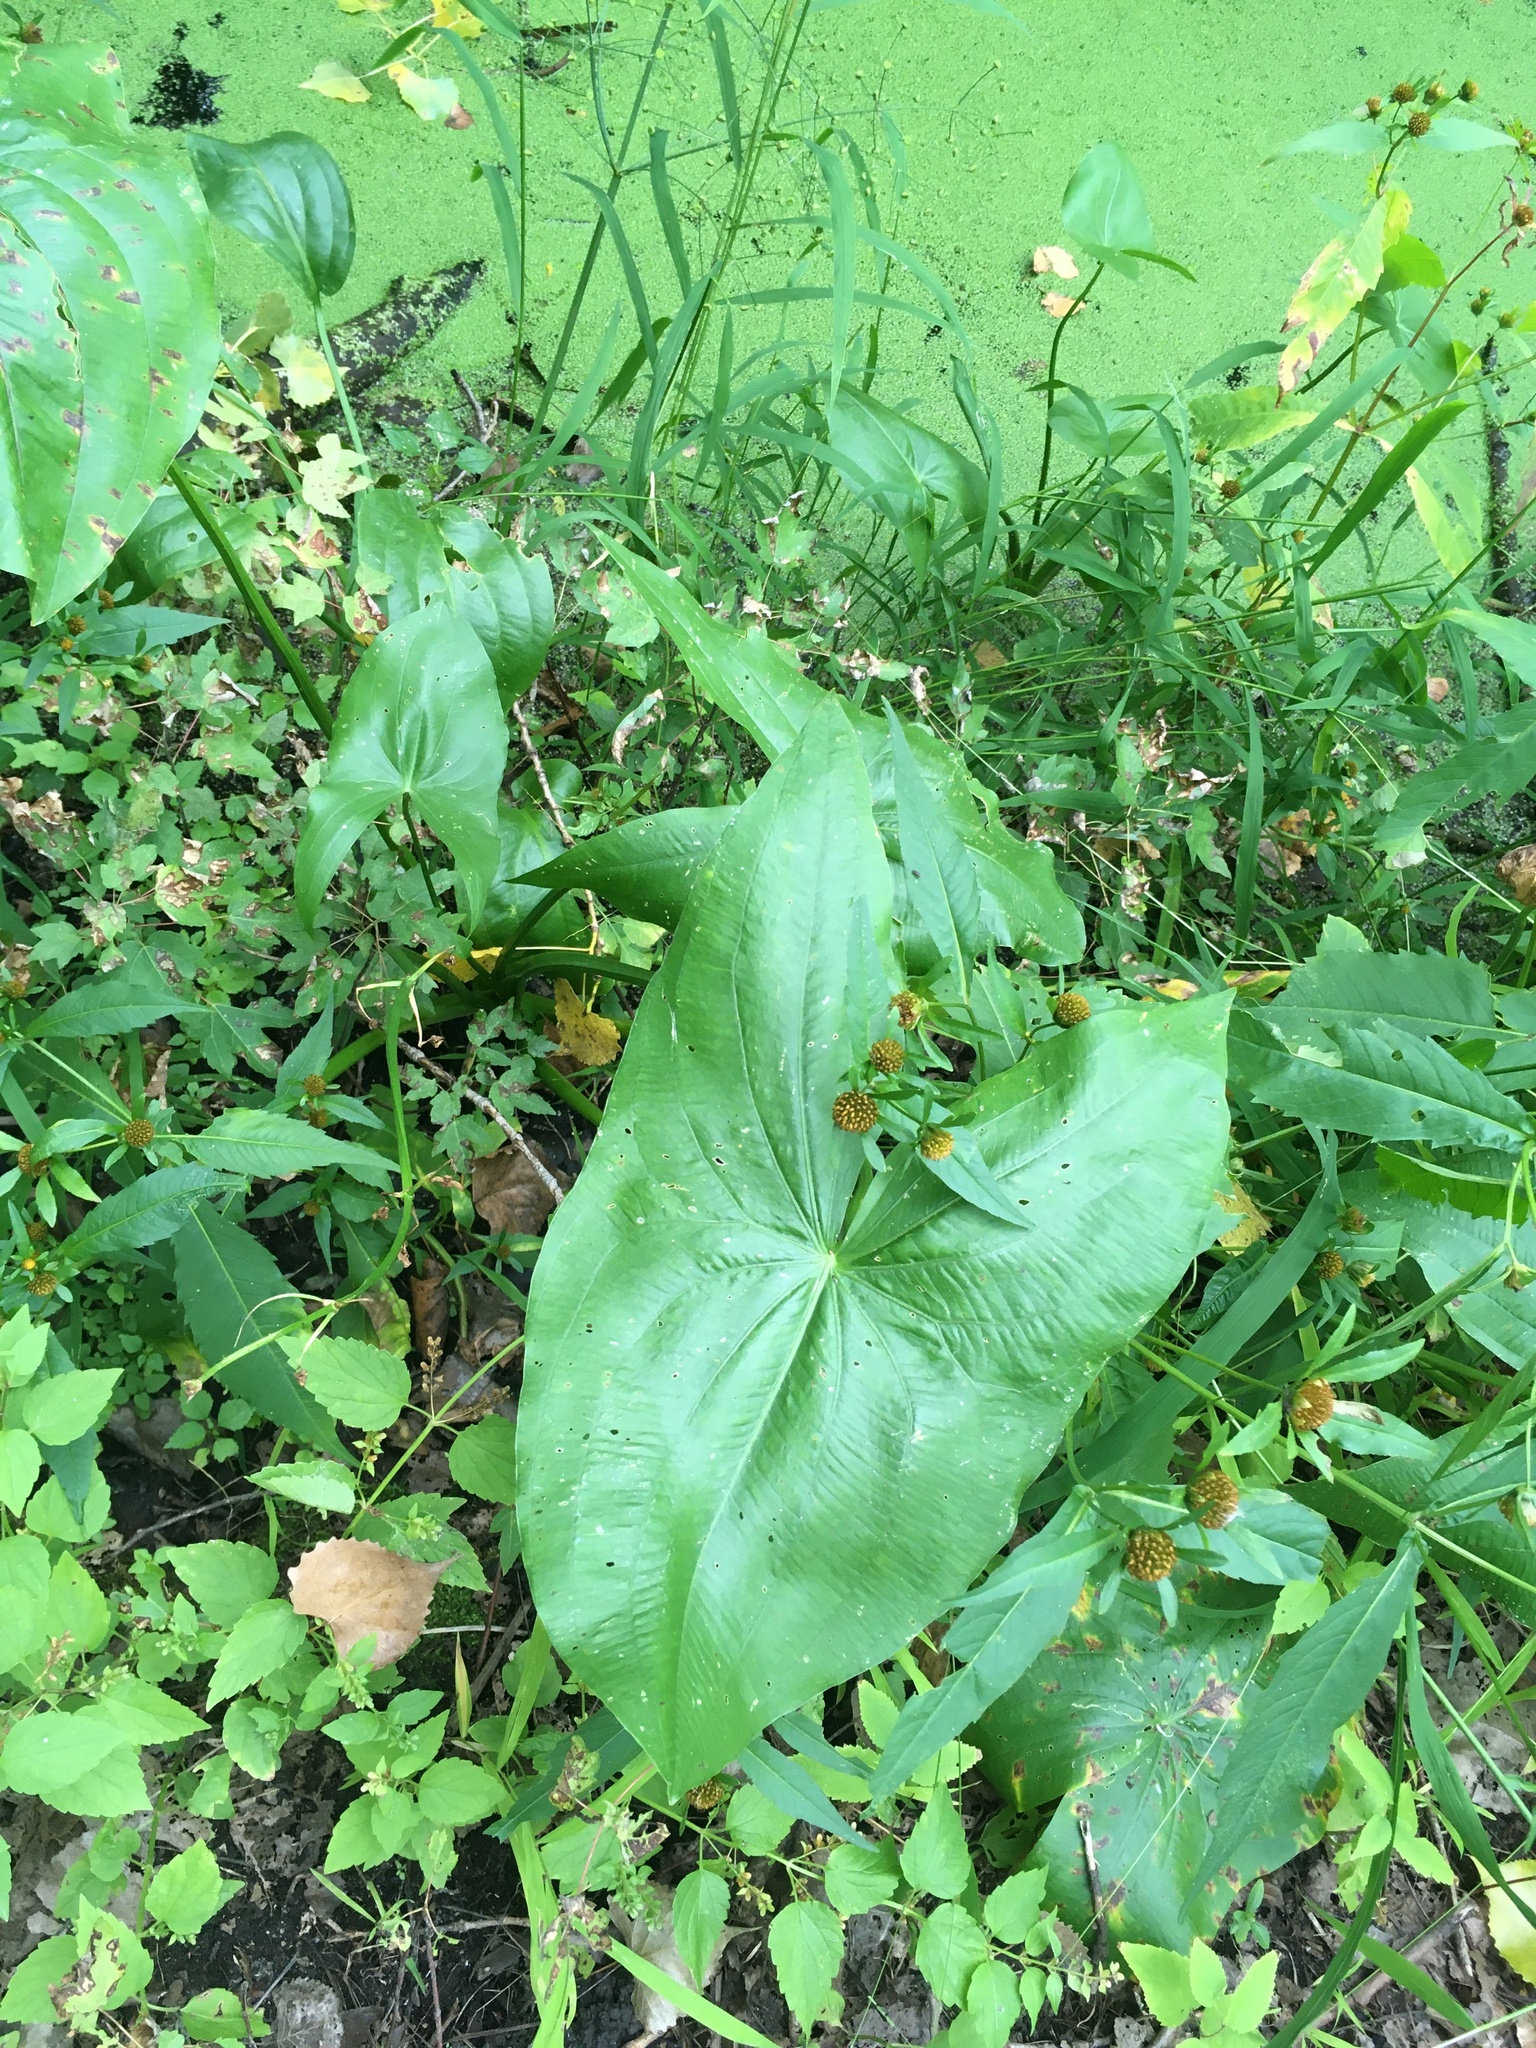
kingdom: Plantae
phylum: Tracheophyta
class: Liliopsida
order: Alismatales
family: Alismataceae
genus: Sagittaria
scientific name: Sagittaria latifolia
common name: Duck-potato
